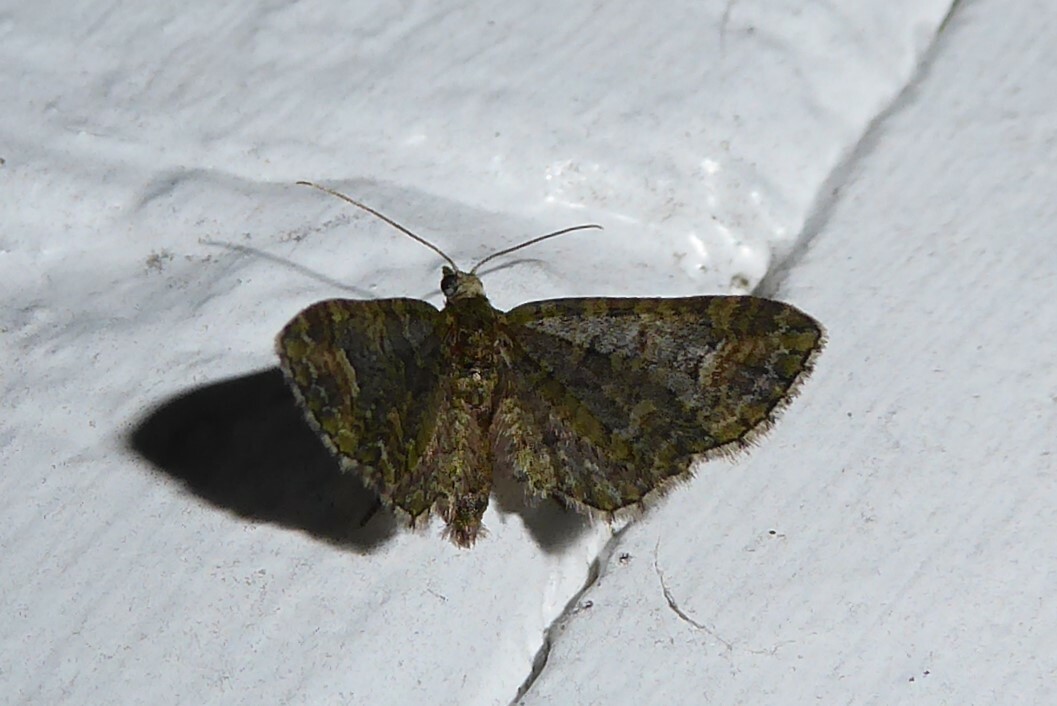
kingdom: Animalia
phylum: Arthropoda
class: Insecta
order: Lepidoptera
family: Geometridae
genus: Pasiphilodes
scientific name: Pasiphilodes testulata
